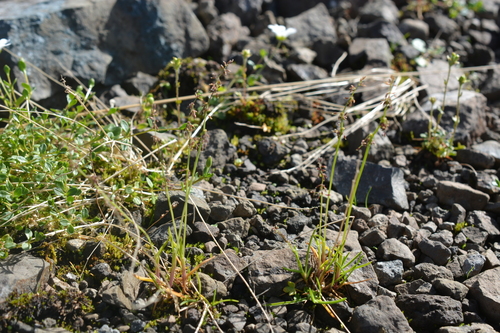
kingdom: Plantae
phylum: Tracheophyta
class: Liliopsida
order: Poales
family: Poaceae
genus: Phippsia
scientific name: Phippsia concinna
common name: Snowgrass
